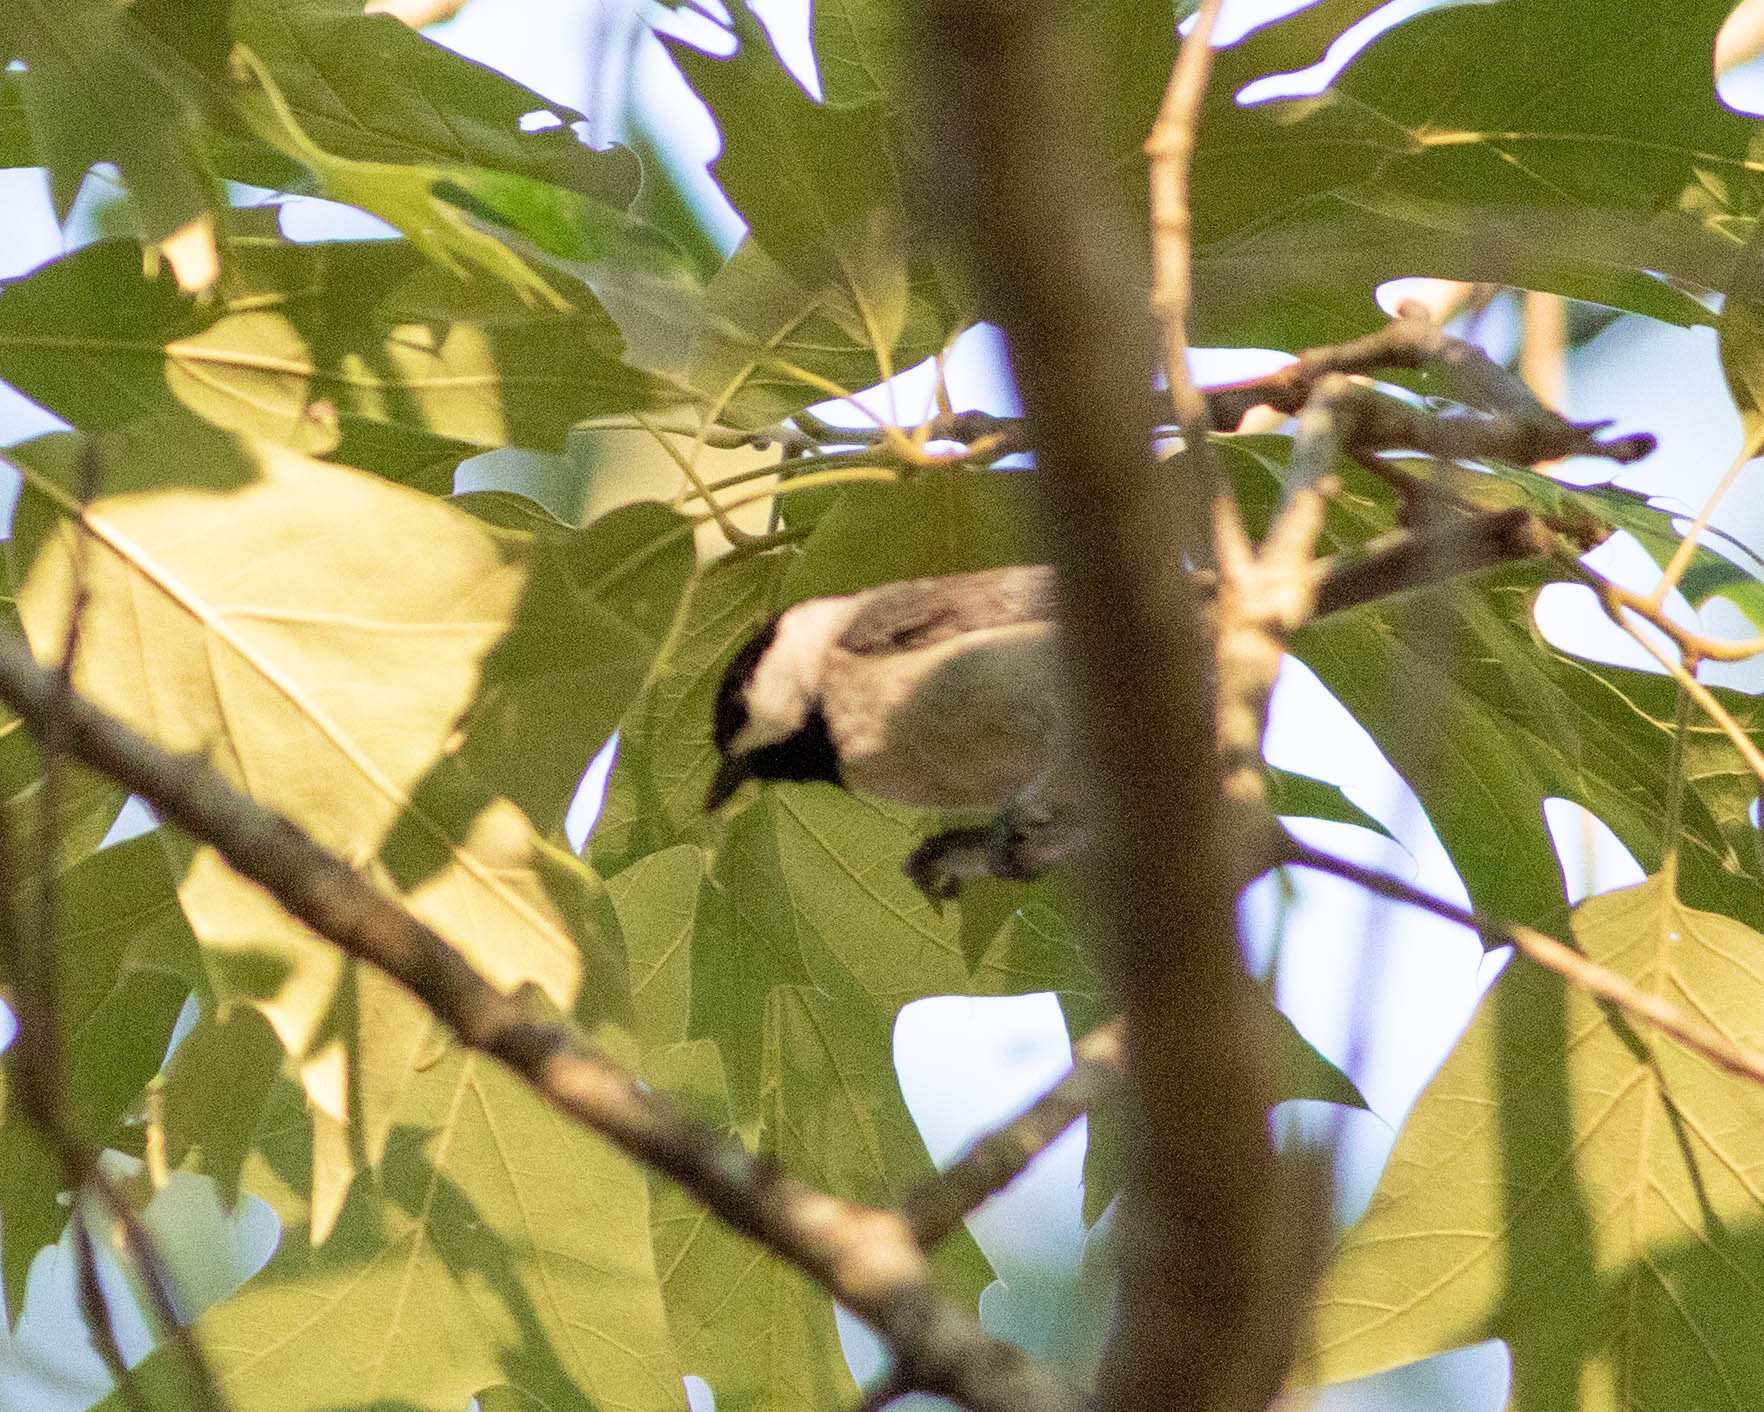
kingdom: Animalia
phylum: Chordata
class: Aves
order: Passeriformes
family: Paridae
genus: Poecile
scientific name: Poecile carolinensis
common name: Carolina chickadee
